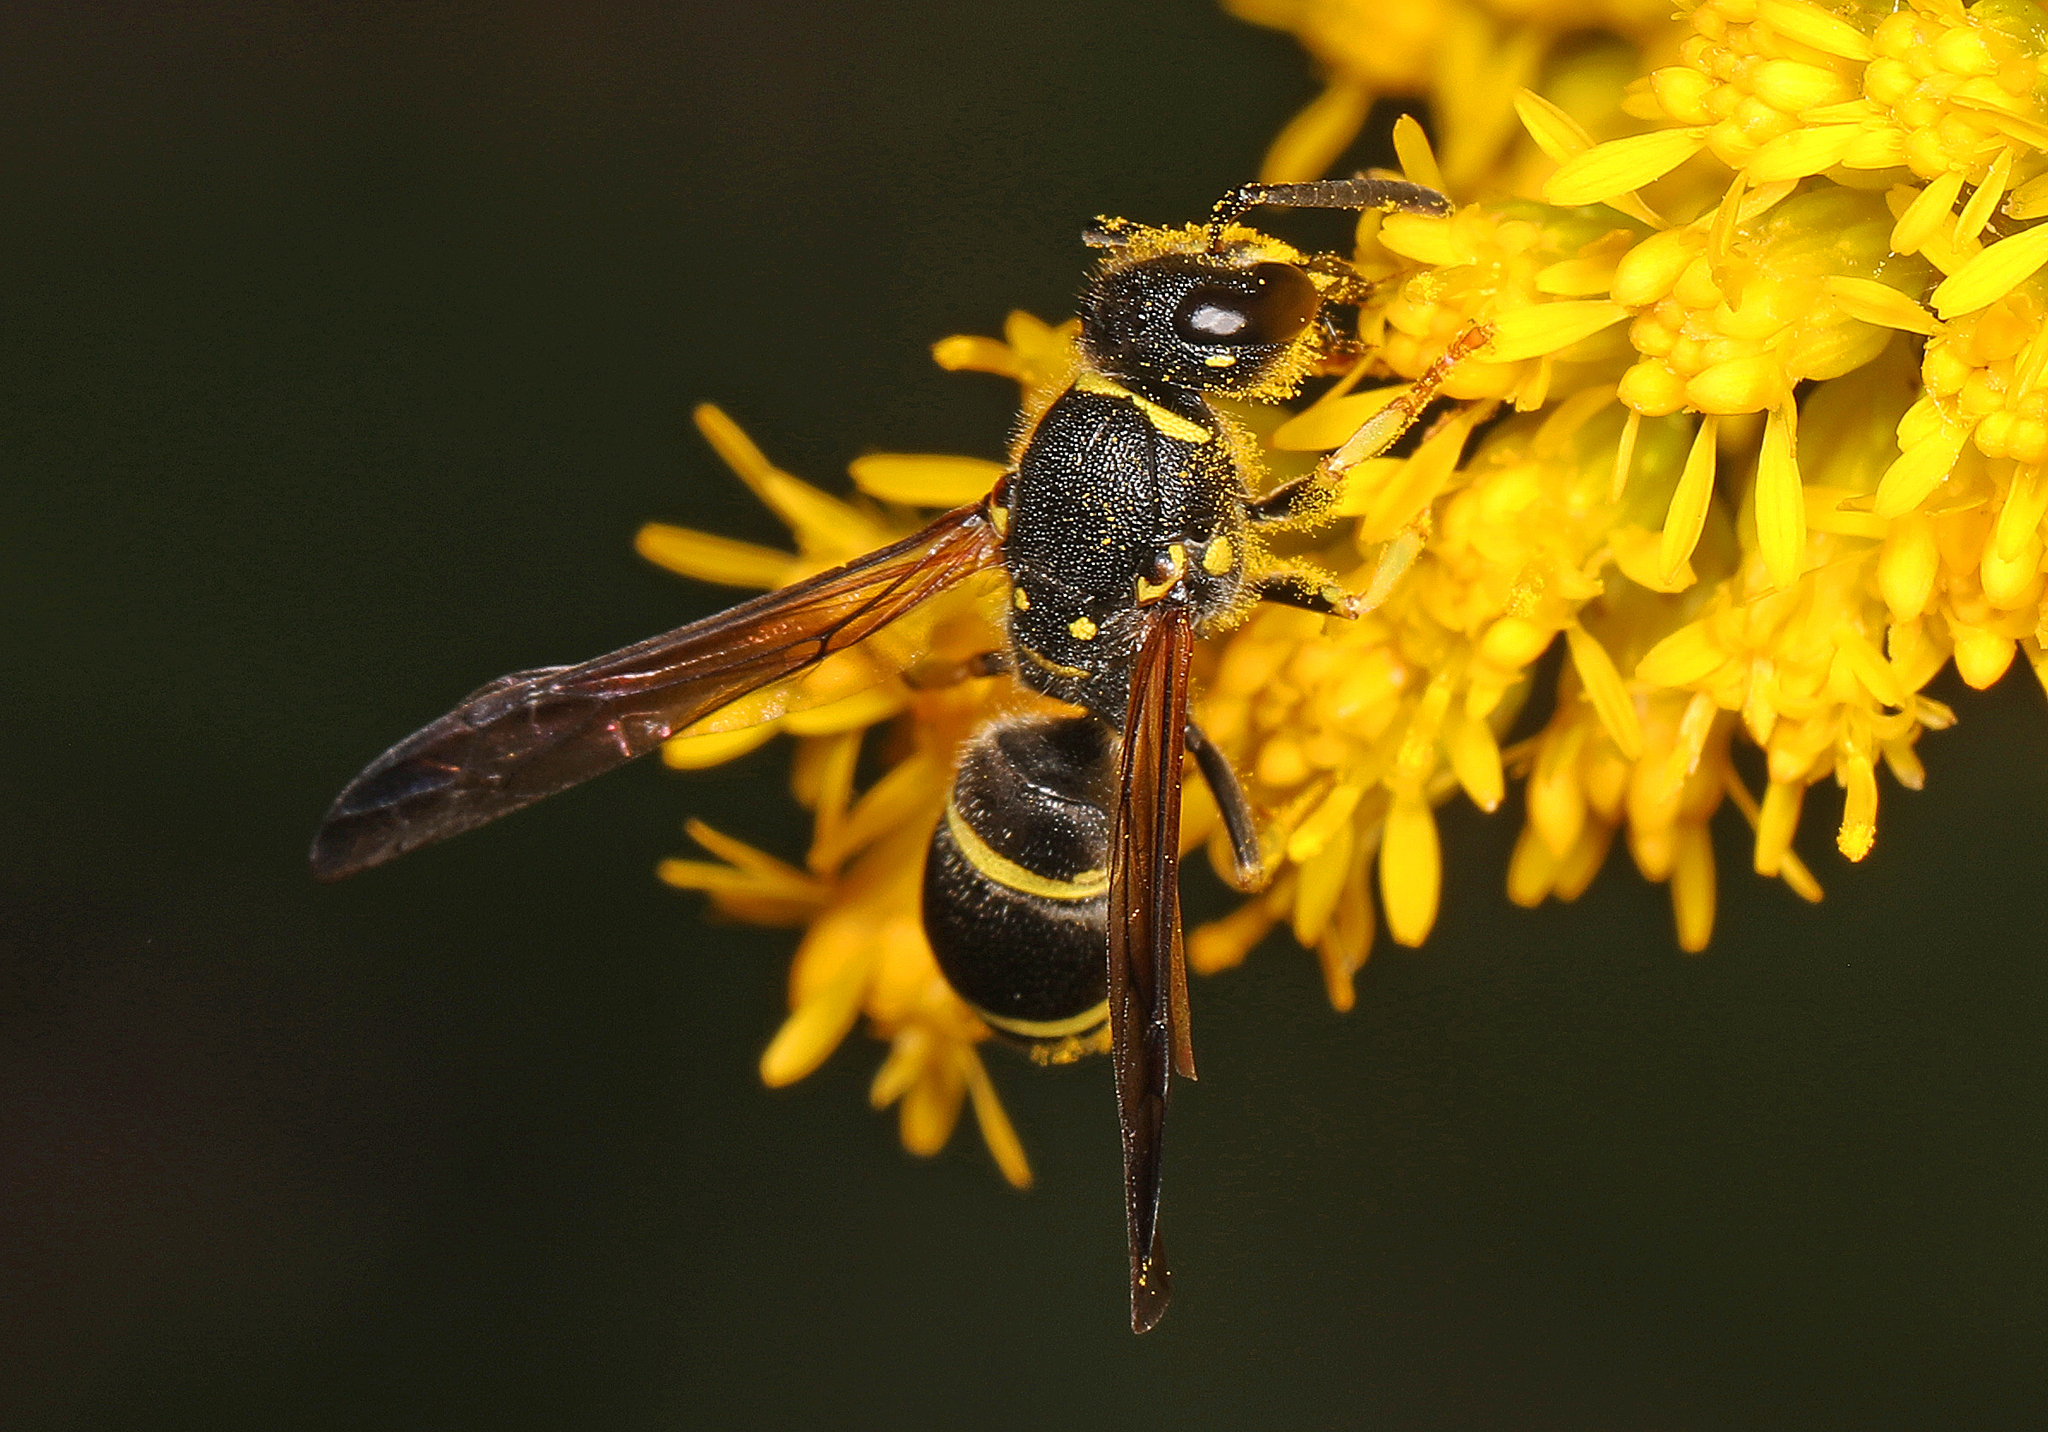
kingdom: Animalia
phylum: Arthropoda
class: Insecta
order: Hymenoptera
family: Vespidae
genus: Ancistrocerus
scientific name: Ancistrocerus adiabatus
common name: Bramble mason wasp
